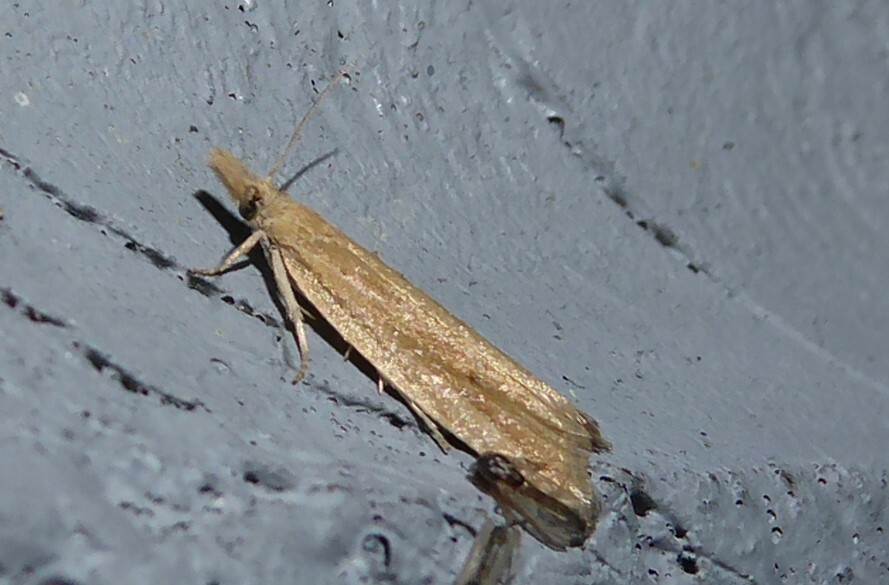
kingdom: Animalia
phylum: Arthropoda
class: Insecta
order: Lepidoptera
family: Tortricidae
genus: Bactra
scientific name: Bactra noteraula
